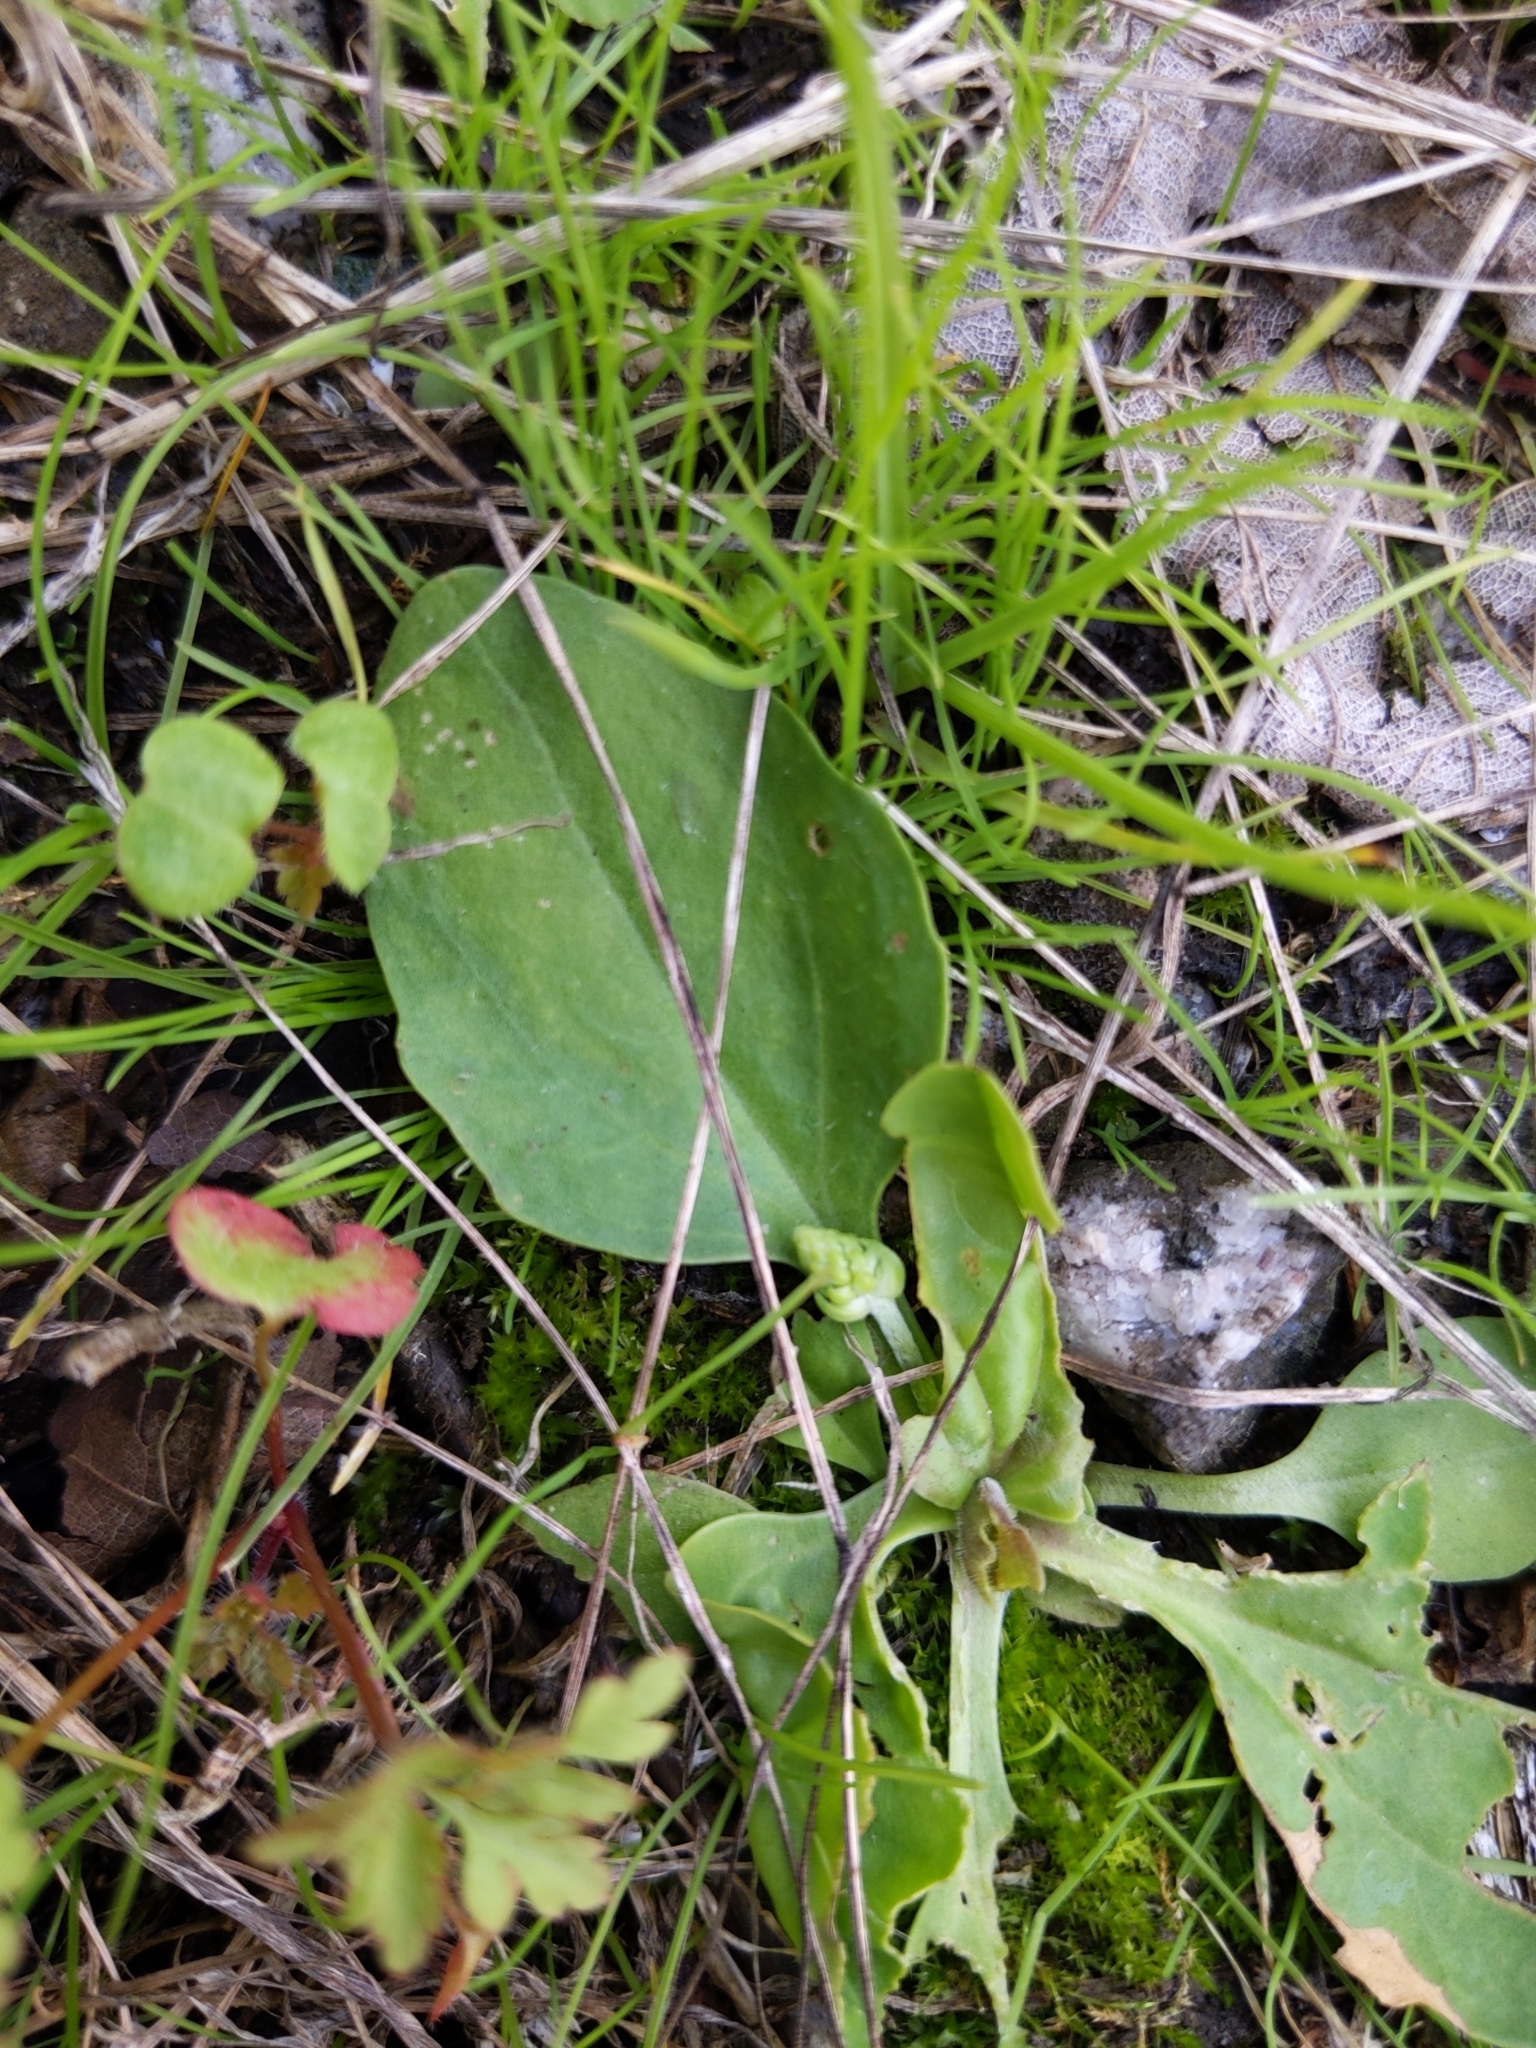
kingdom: Plantae
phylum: Tracheophyta
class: Magnoliopsida
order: Lamiales
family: Plantaginaceae
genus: Plantago
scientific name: Plantago major
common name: Common plantain
